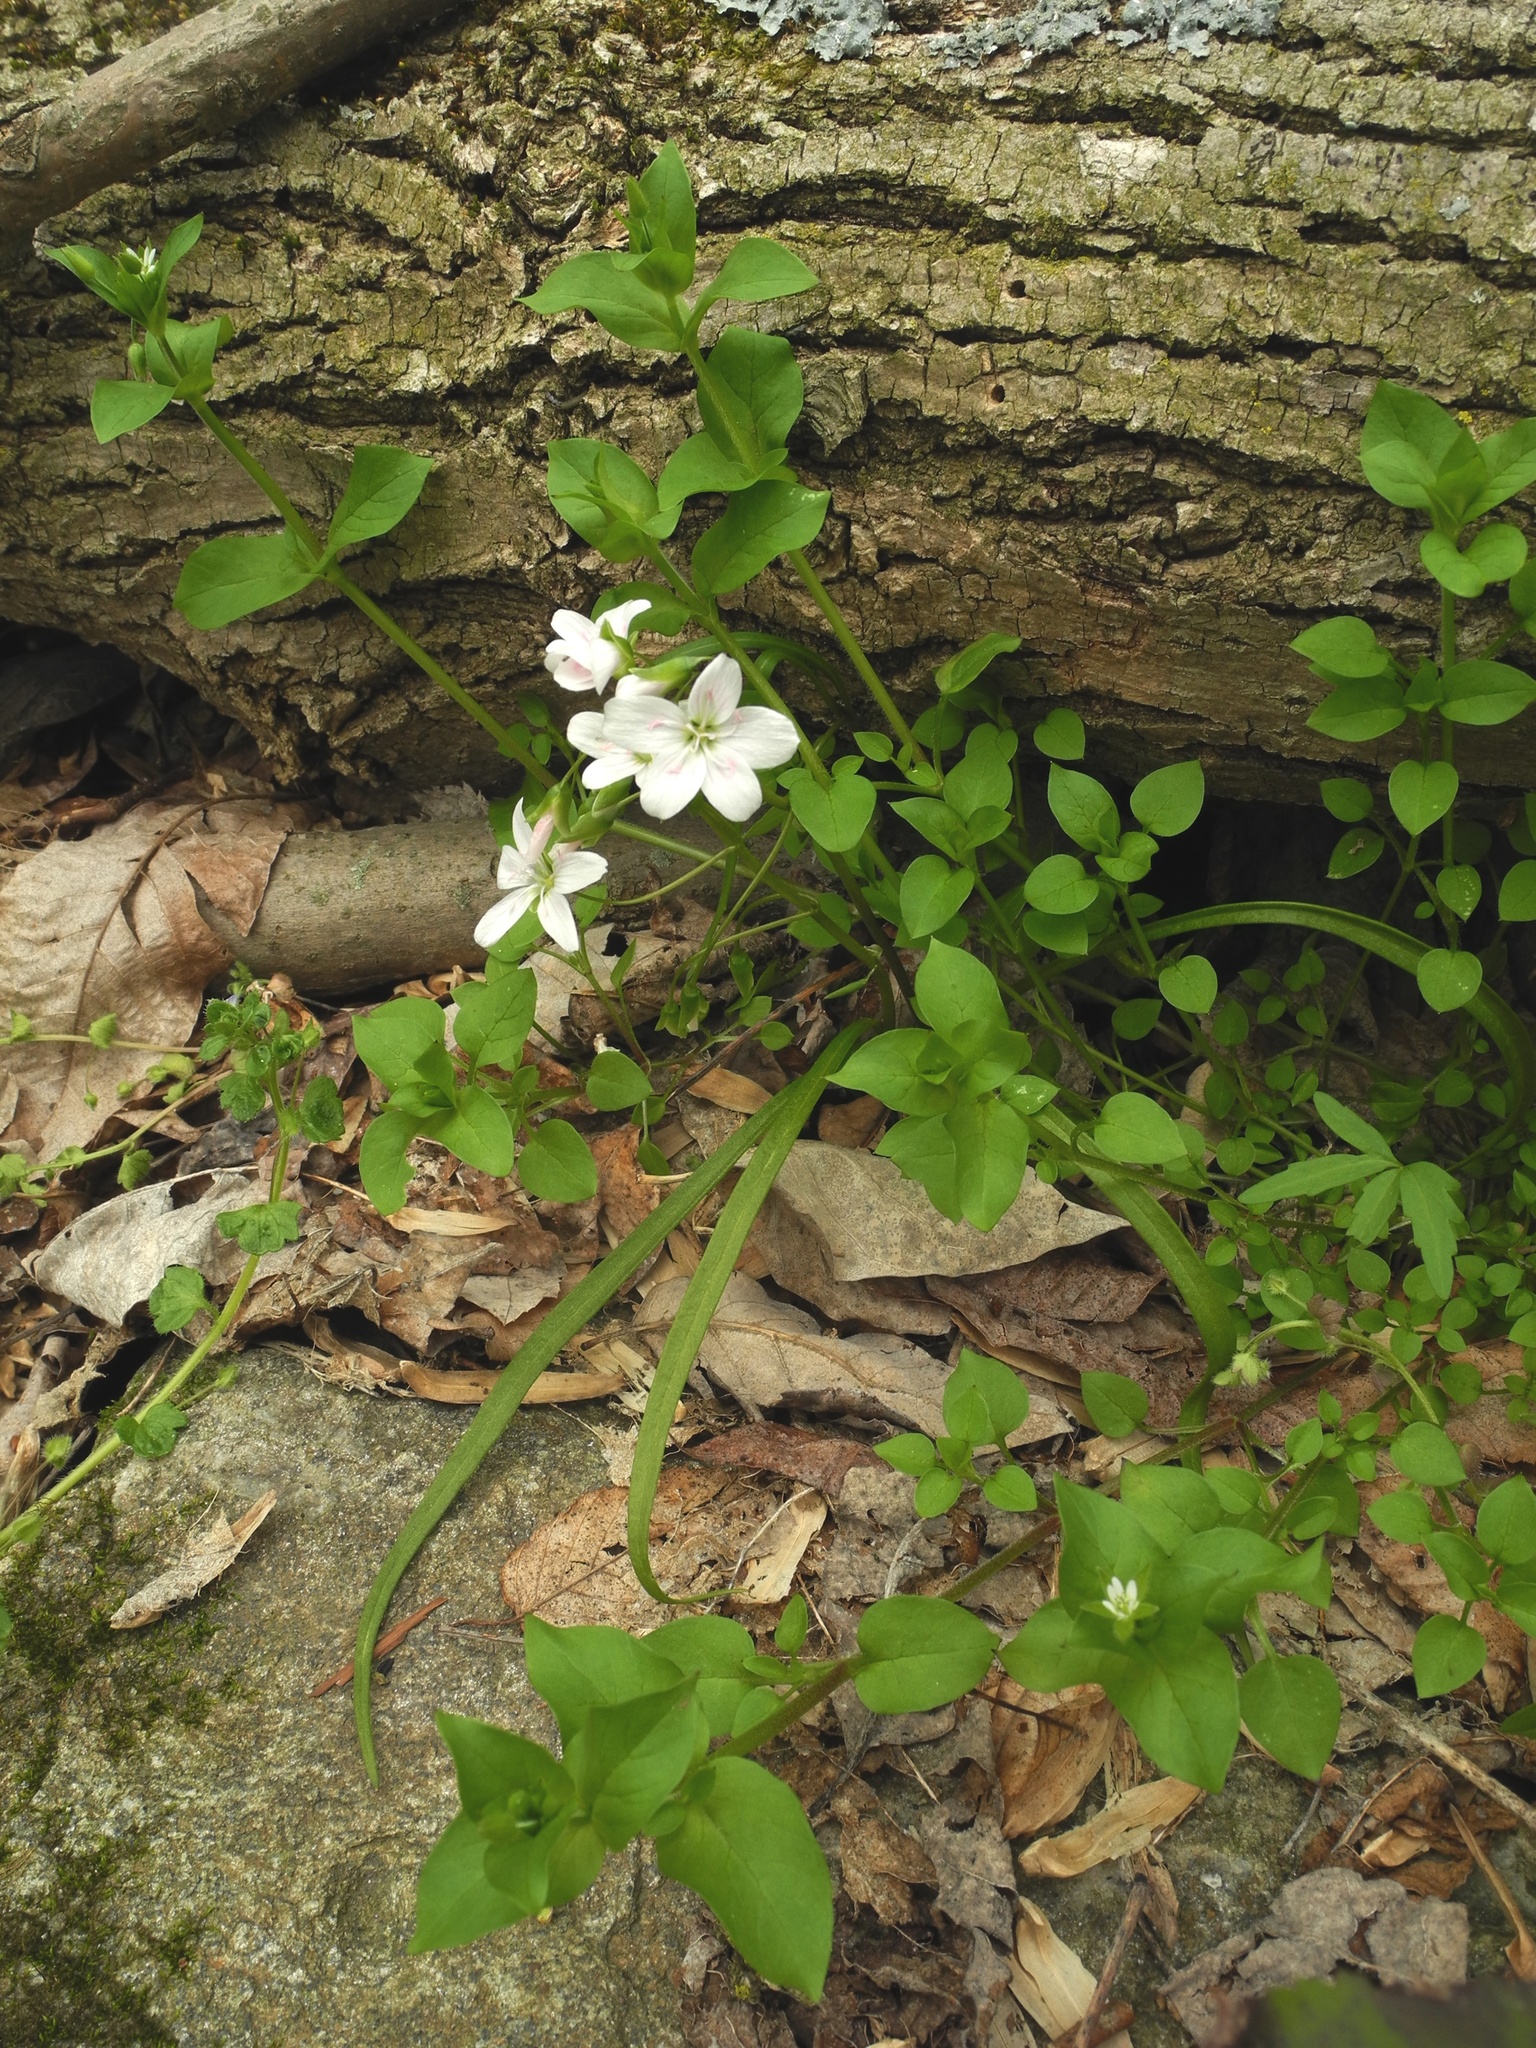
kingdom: Plantae
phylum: Tracheophyta
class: Magnoliopsida
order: Caryophyllales
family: Montiaceae
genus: Claytonia
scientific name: Claytonia virginica
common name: Virginia springbeauty
